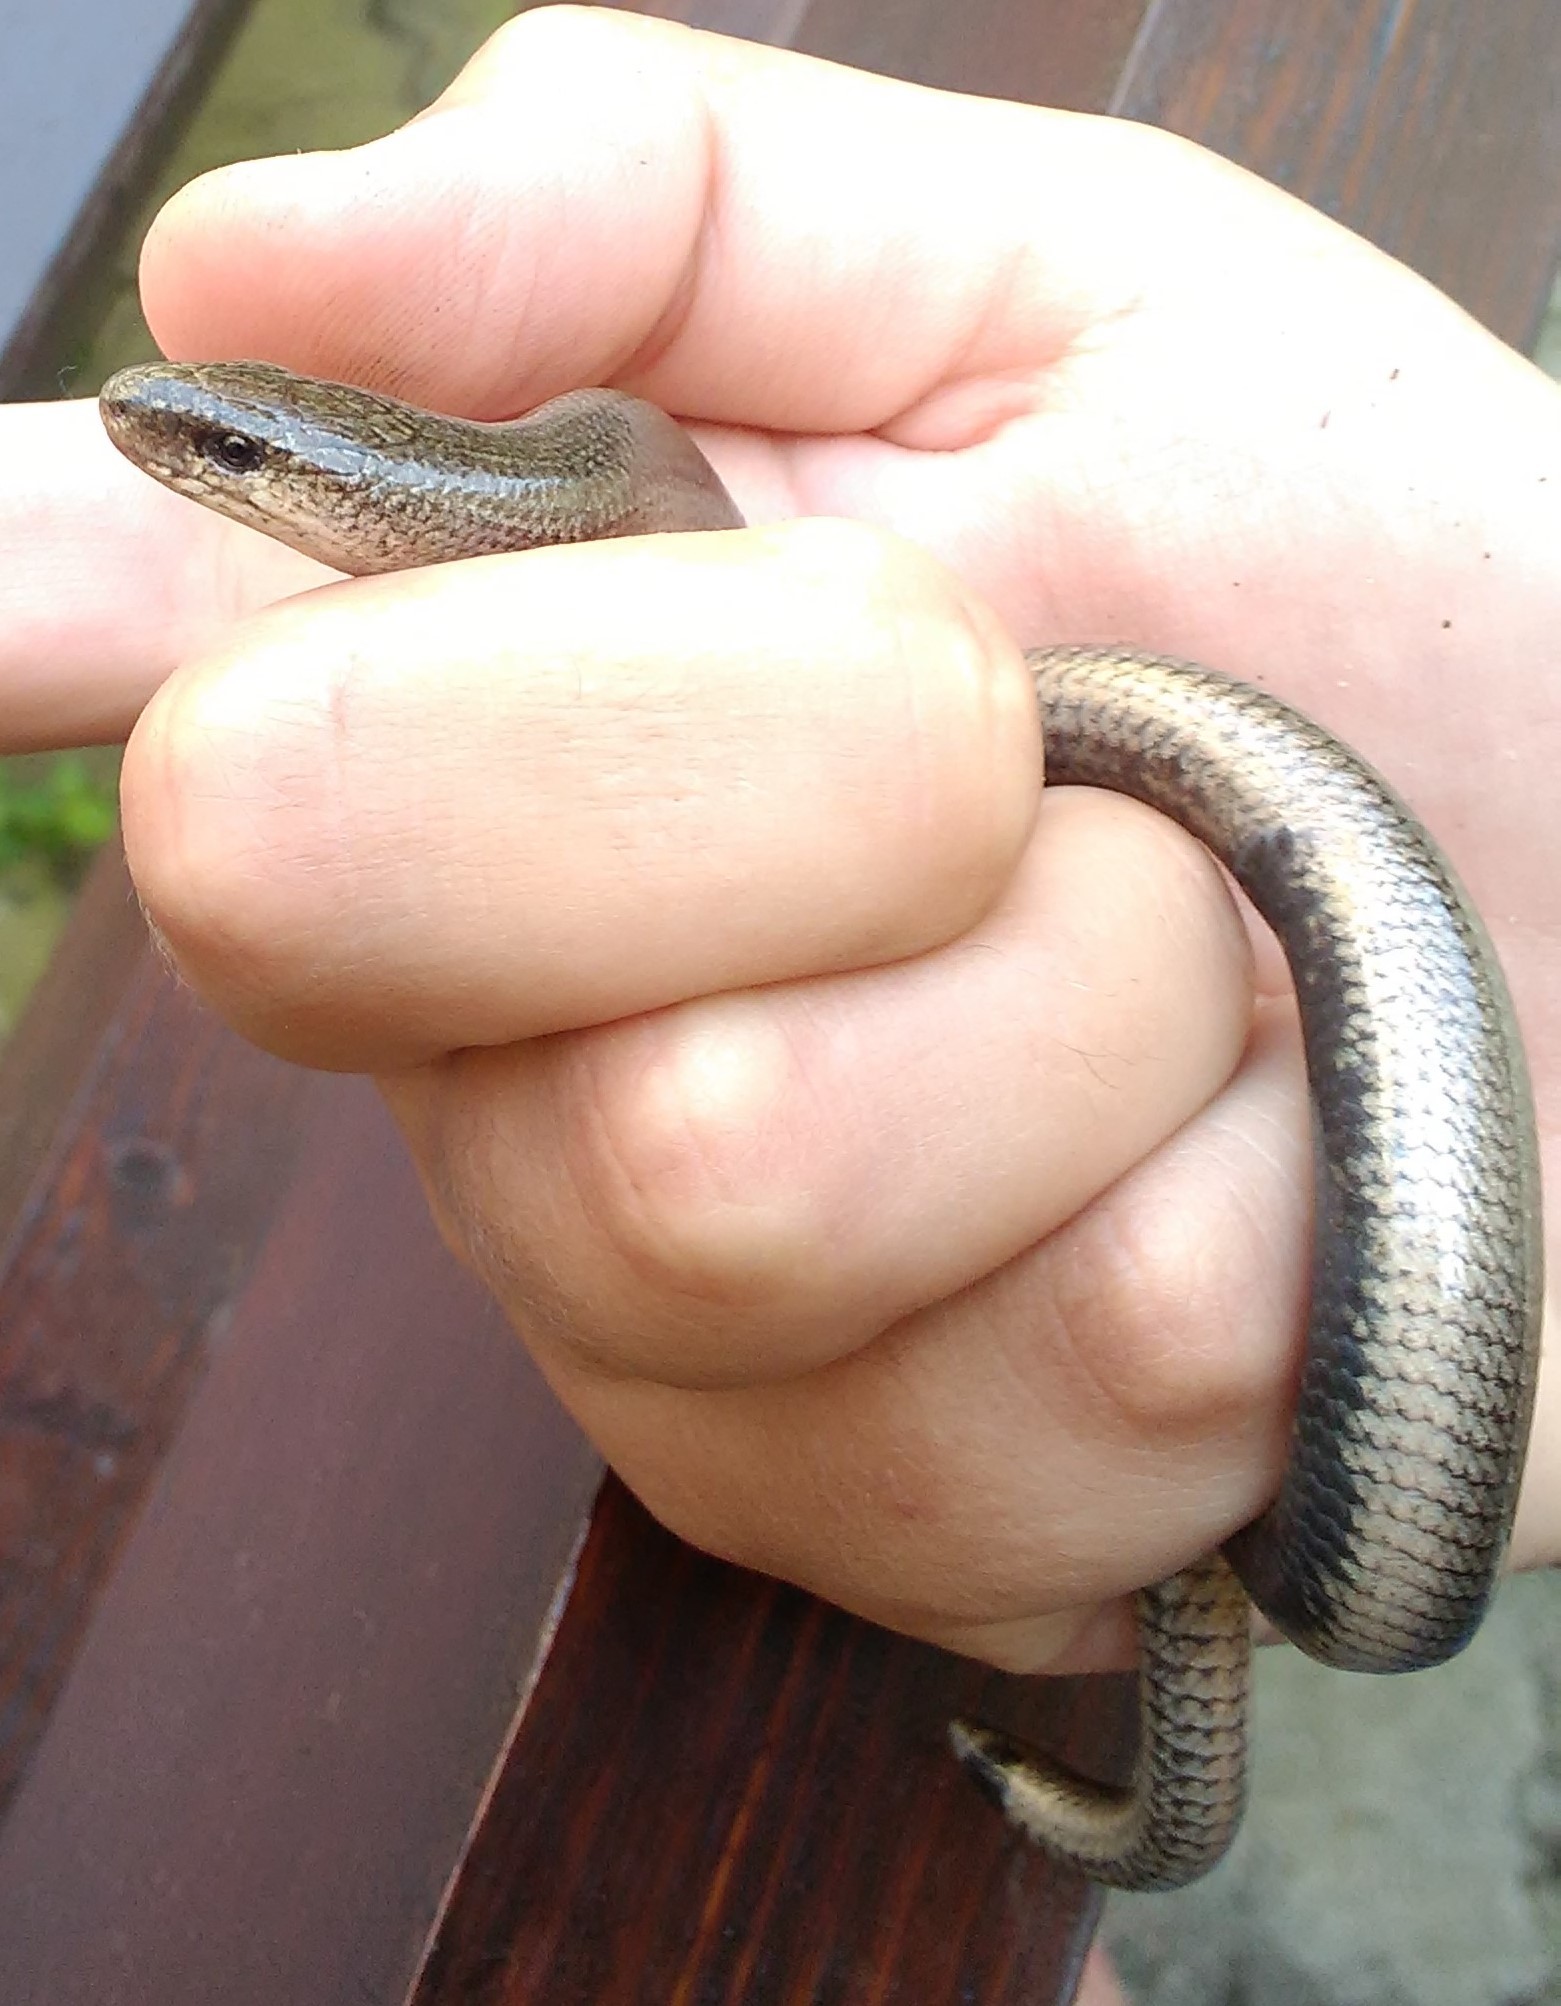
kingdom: Animalia
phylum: Chordata
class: Squamata
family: Anguidae
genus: Anguis
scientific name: Anguis colchica
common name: Slow worm
